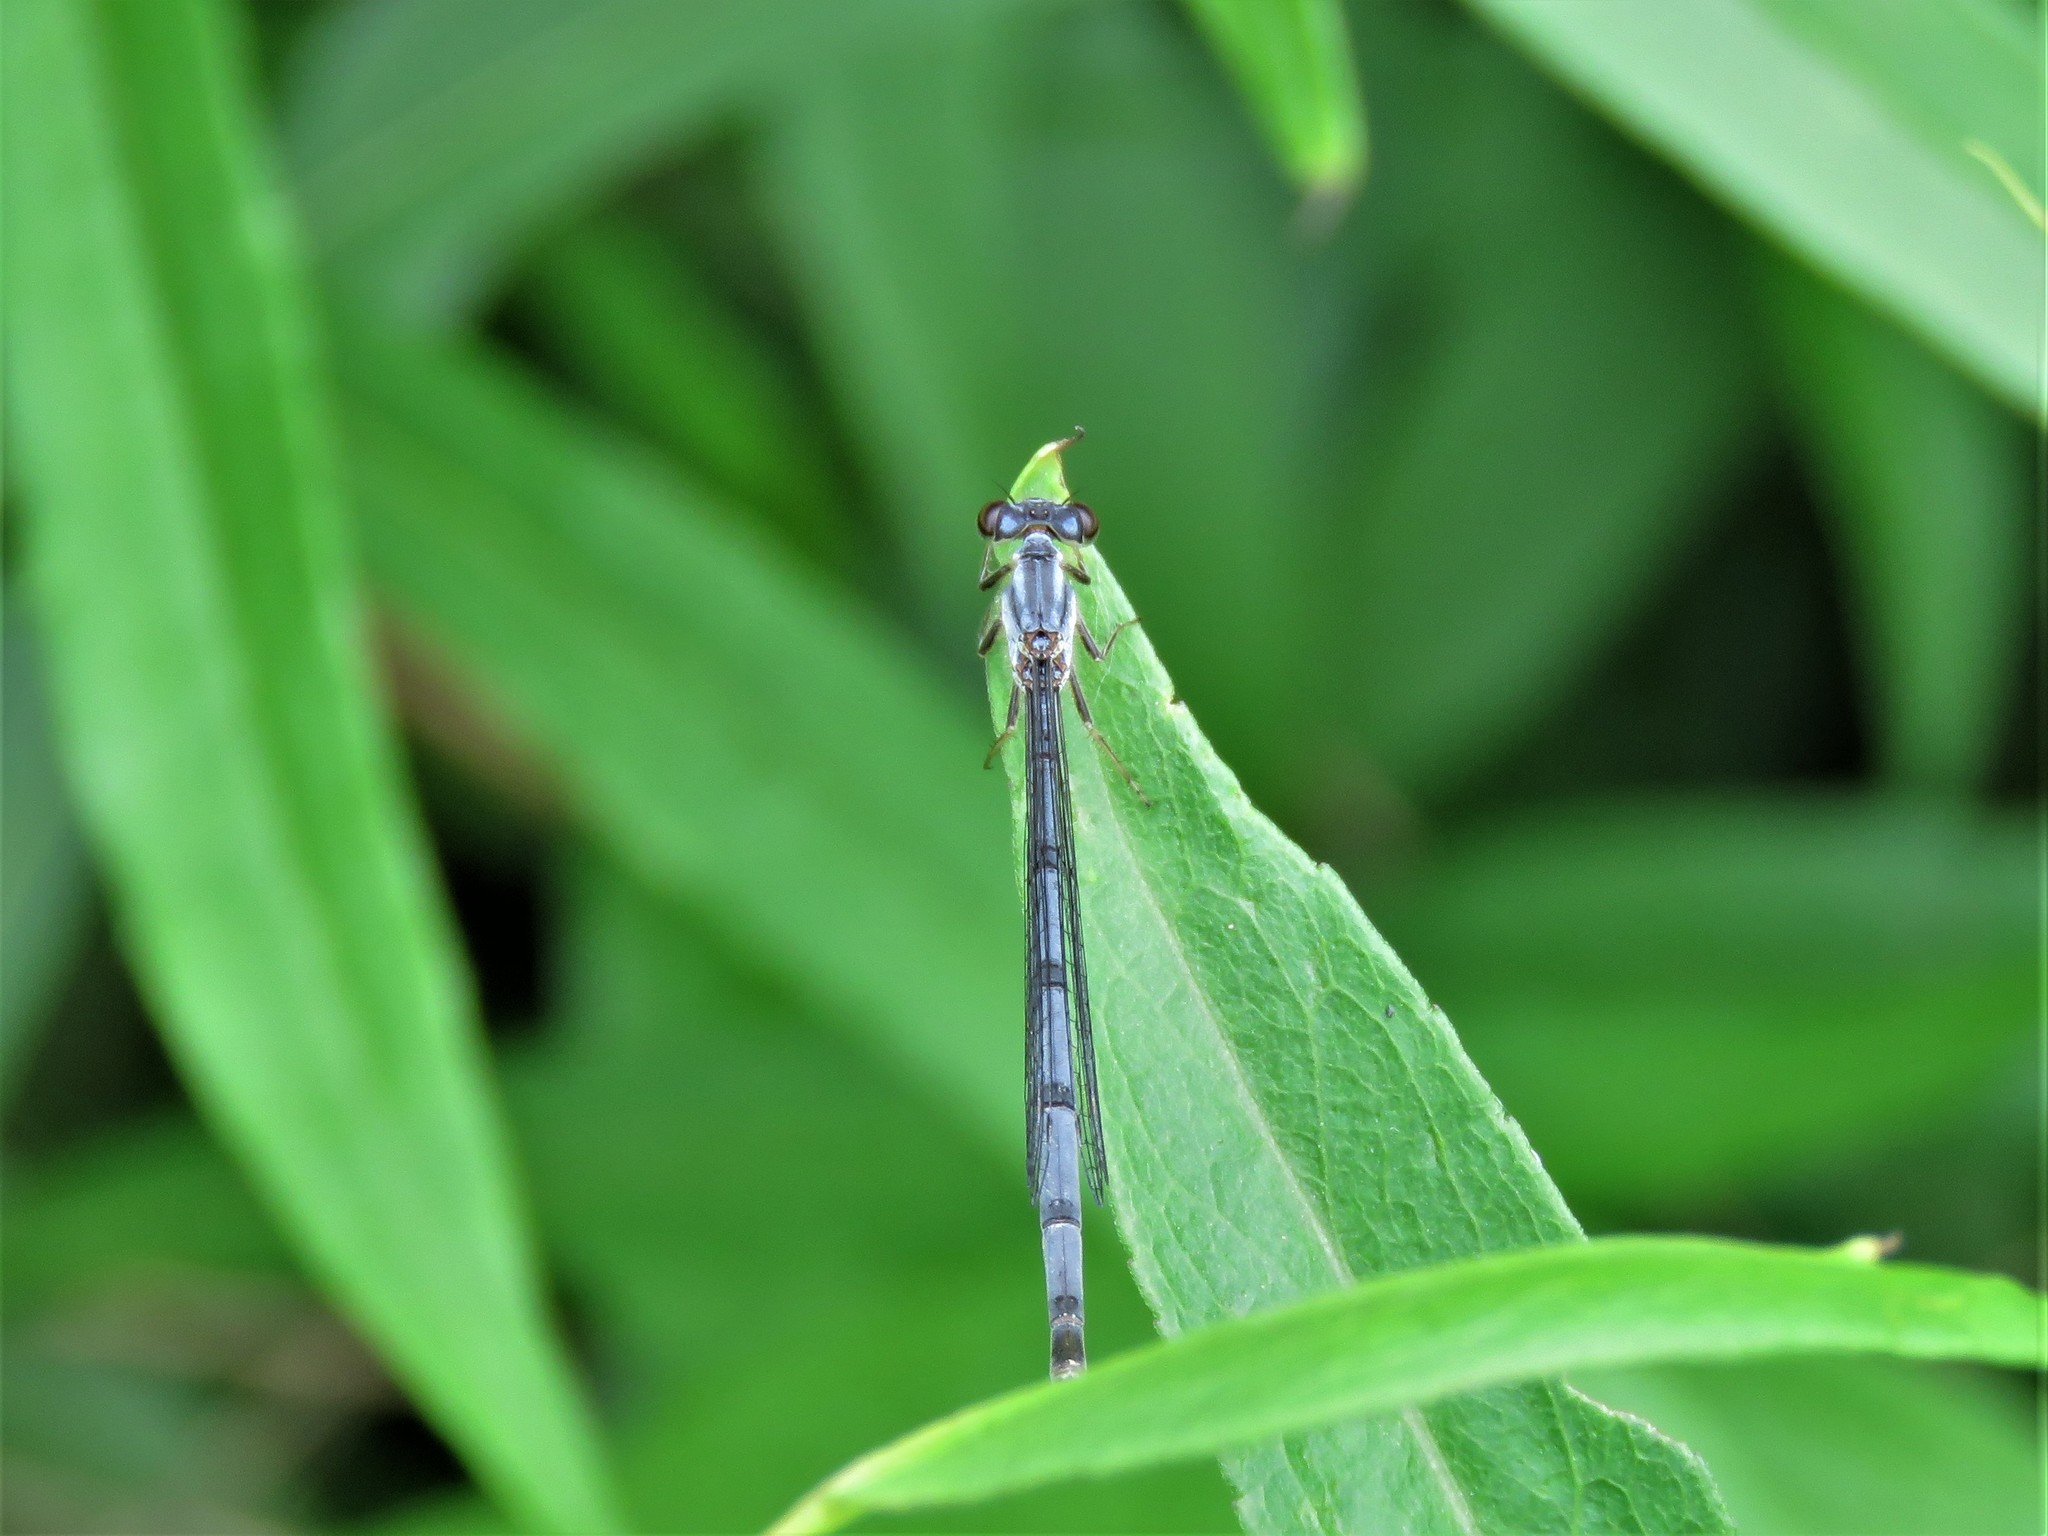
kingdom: Animalia
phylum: Arthropoda
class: Insecta
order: Odonata
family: Coenagrionidae
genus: Ischnura
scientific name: Ischnura posita
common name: Fragile forktail
